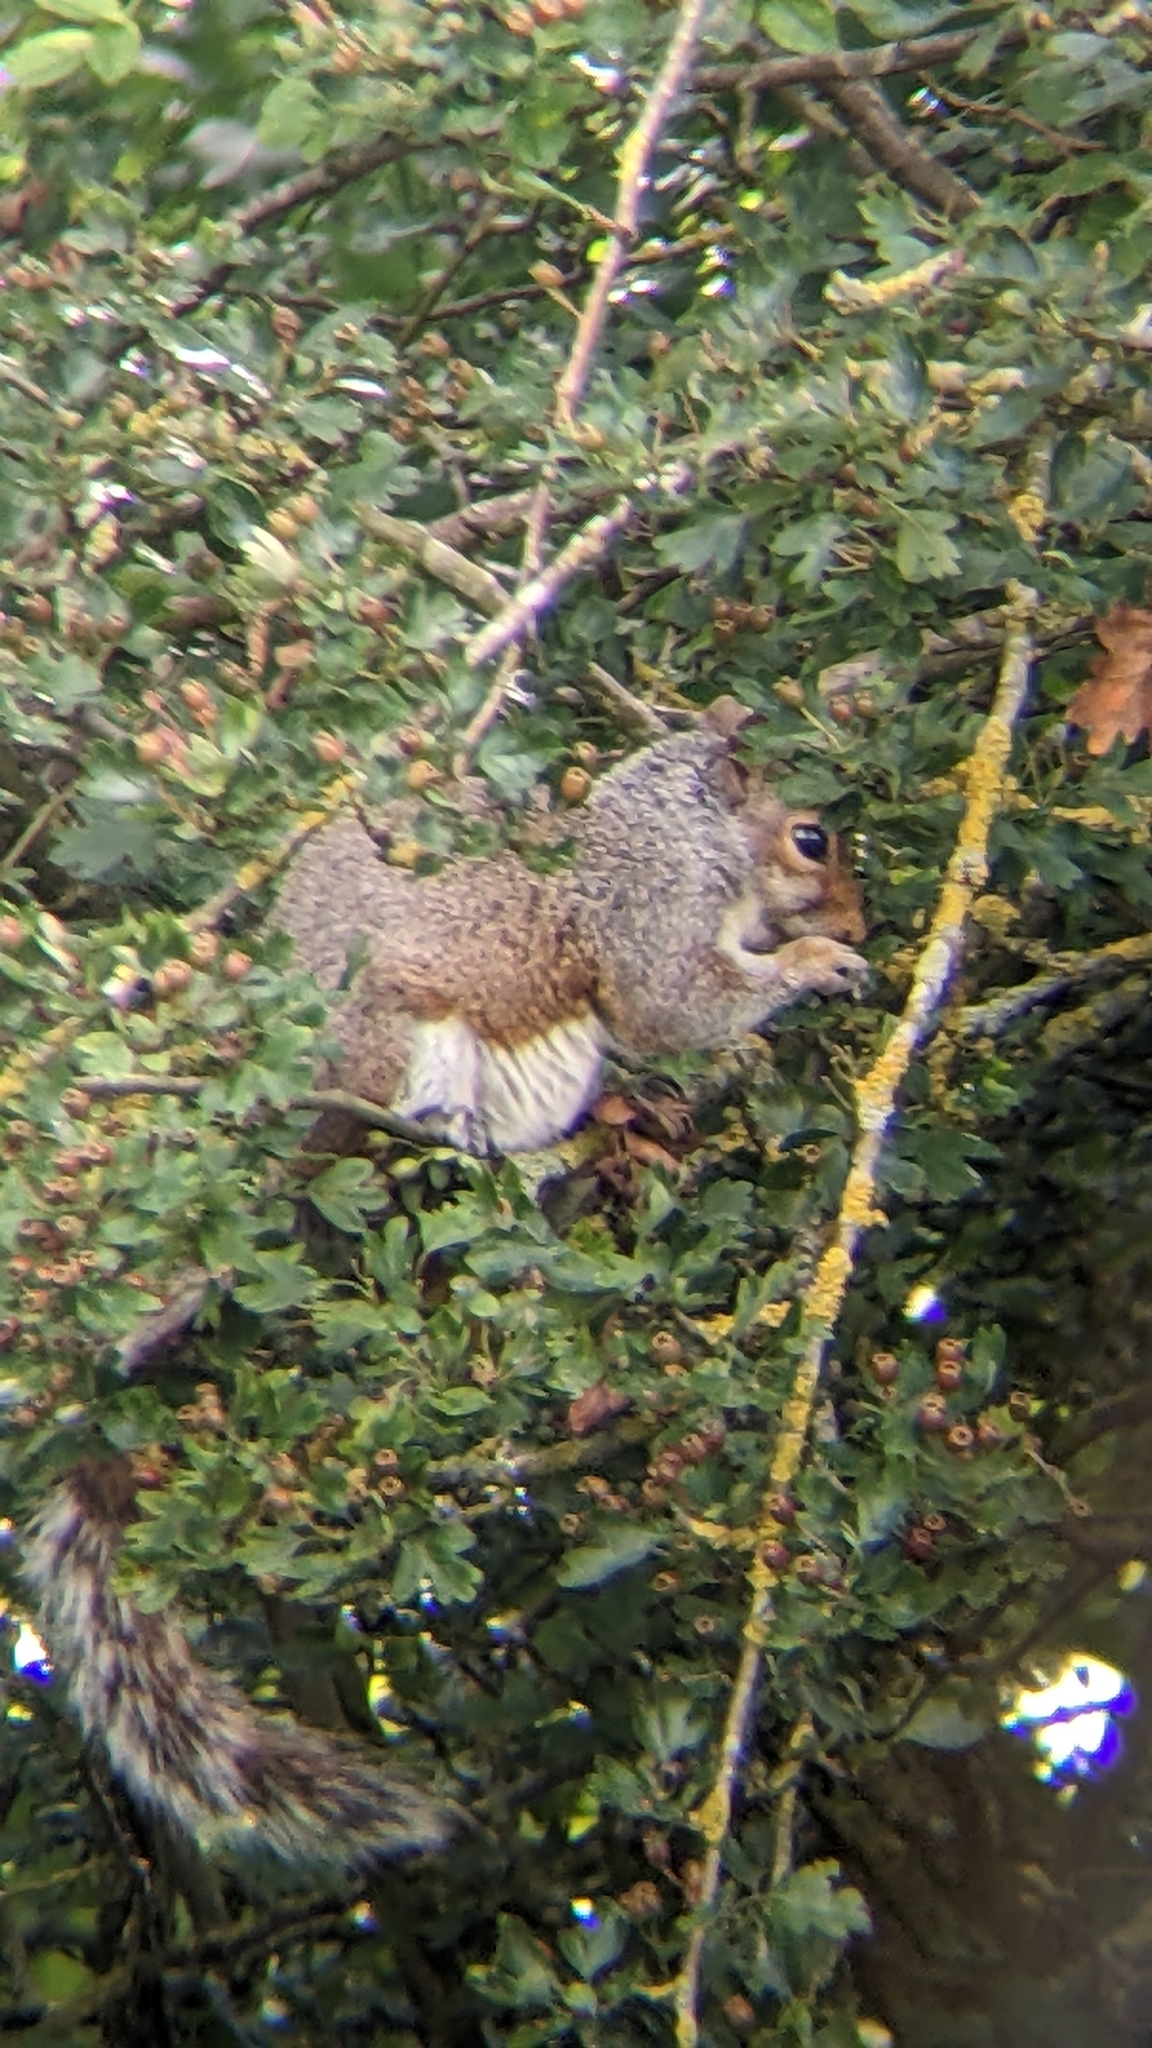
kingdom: Animalia
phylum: Chordata
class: Mammalia
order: Rodentia
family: Sciuridae
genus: Sciurus
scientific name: Sciurus carolinensis
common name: Eastern gray squirrel
